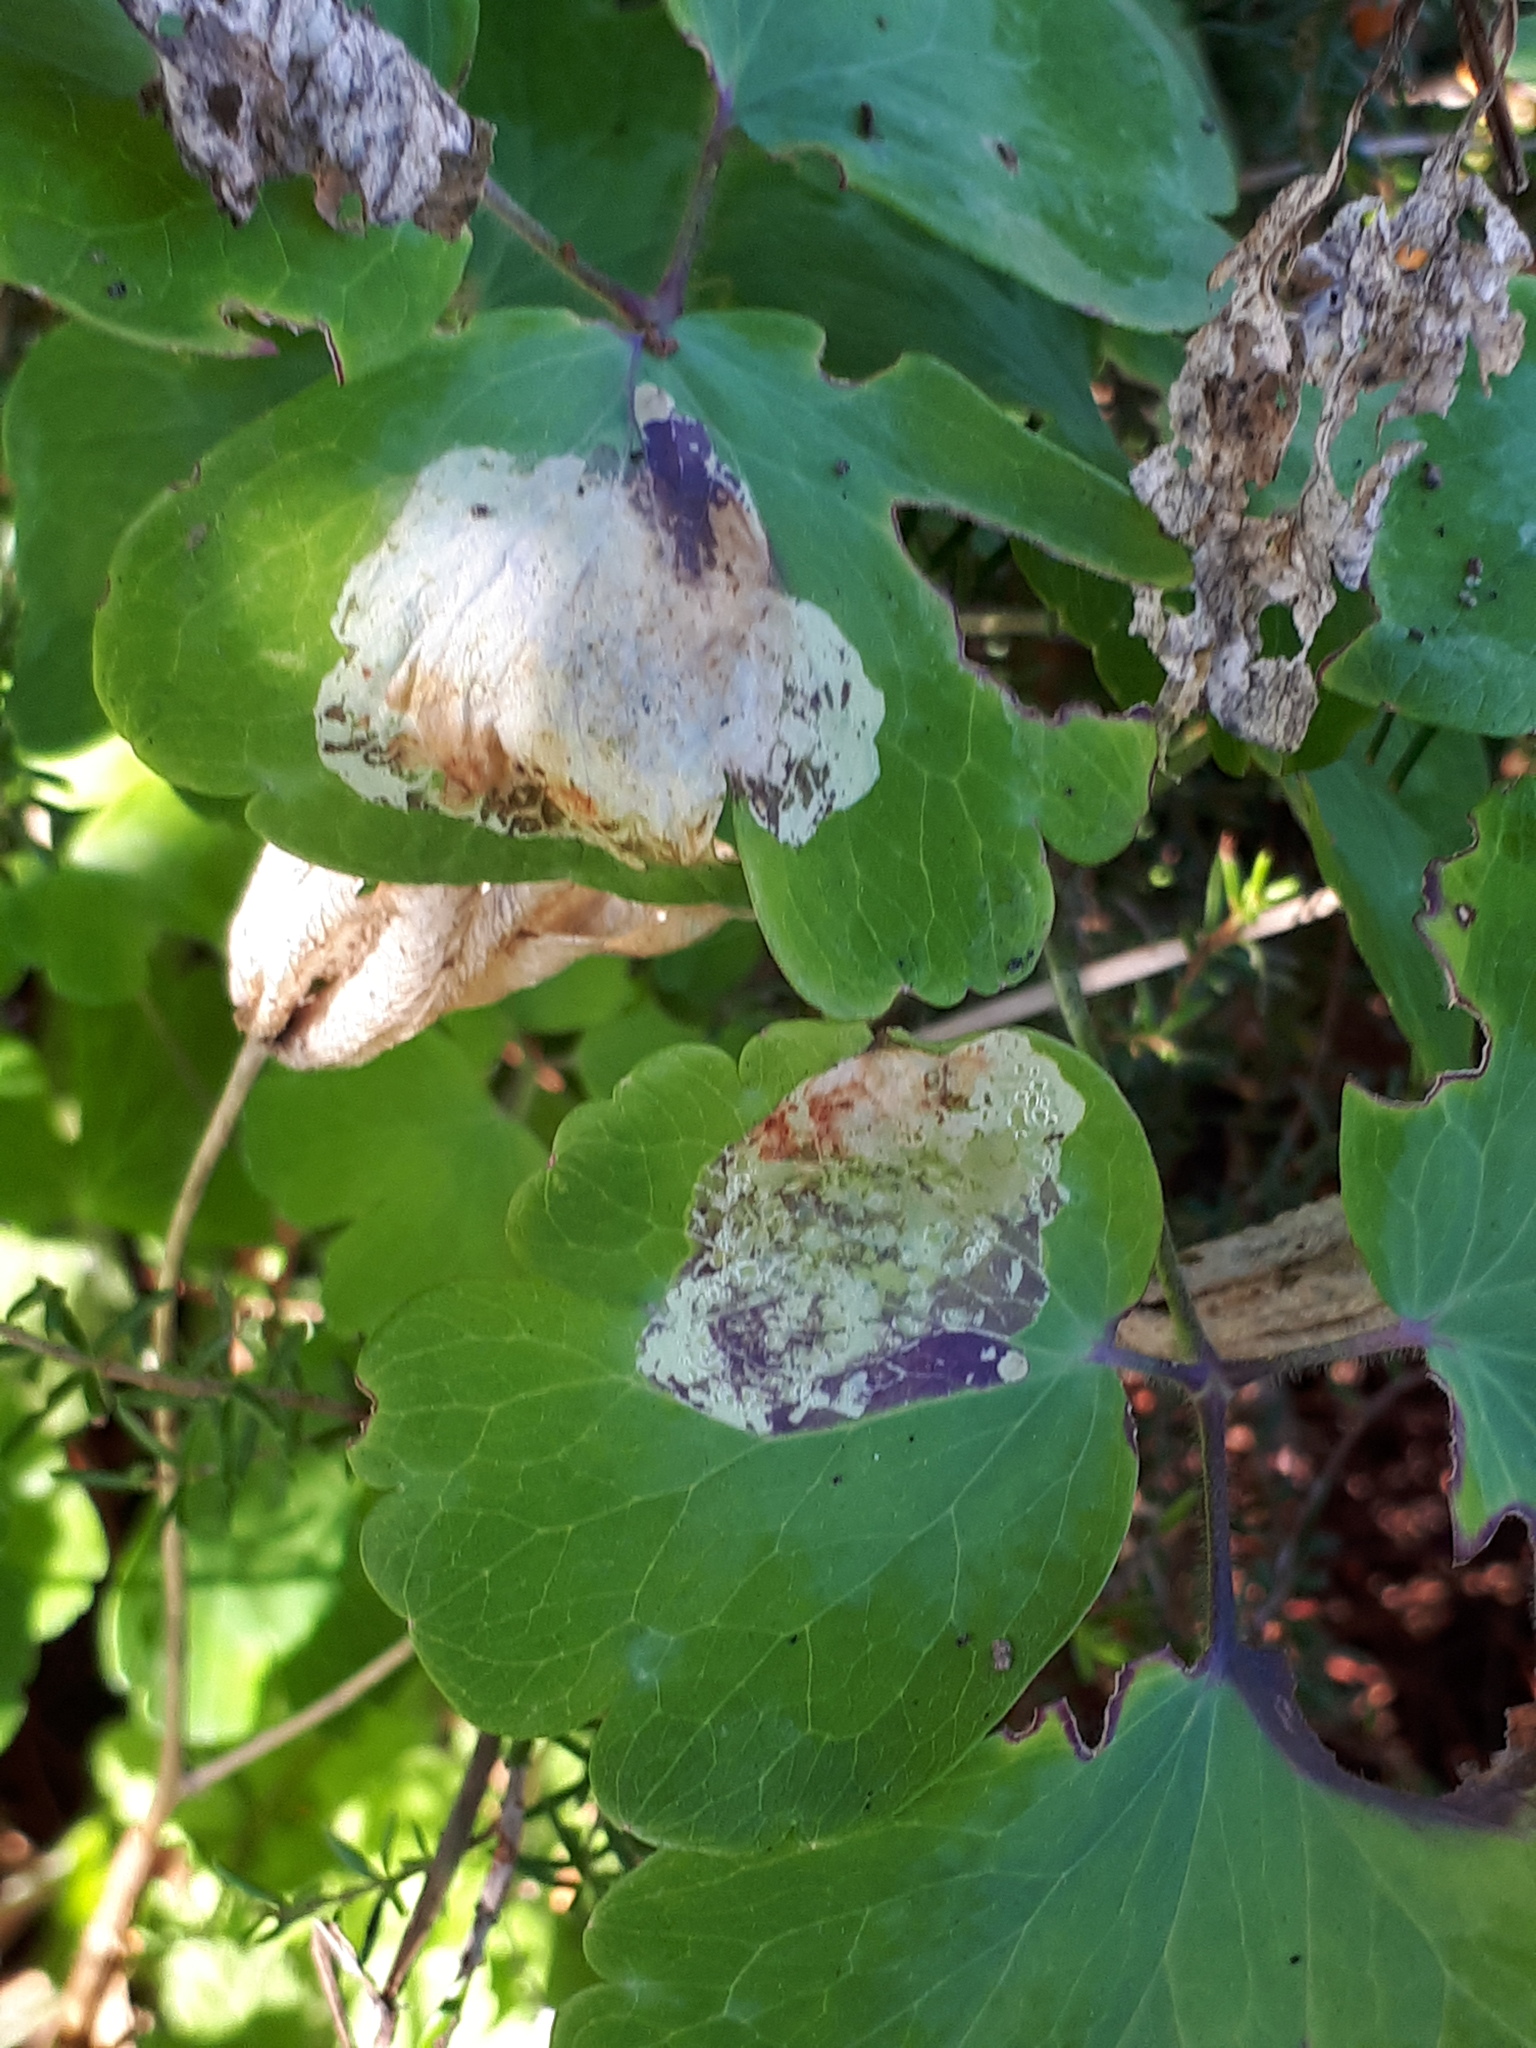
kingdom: Animalia
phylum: Arthropoda
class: Insecta
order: Diptera
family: Agromyzidae
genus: Phytomyza
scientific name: Phytomyza aquilegiae
